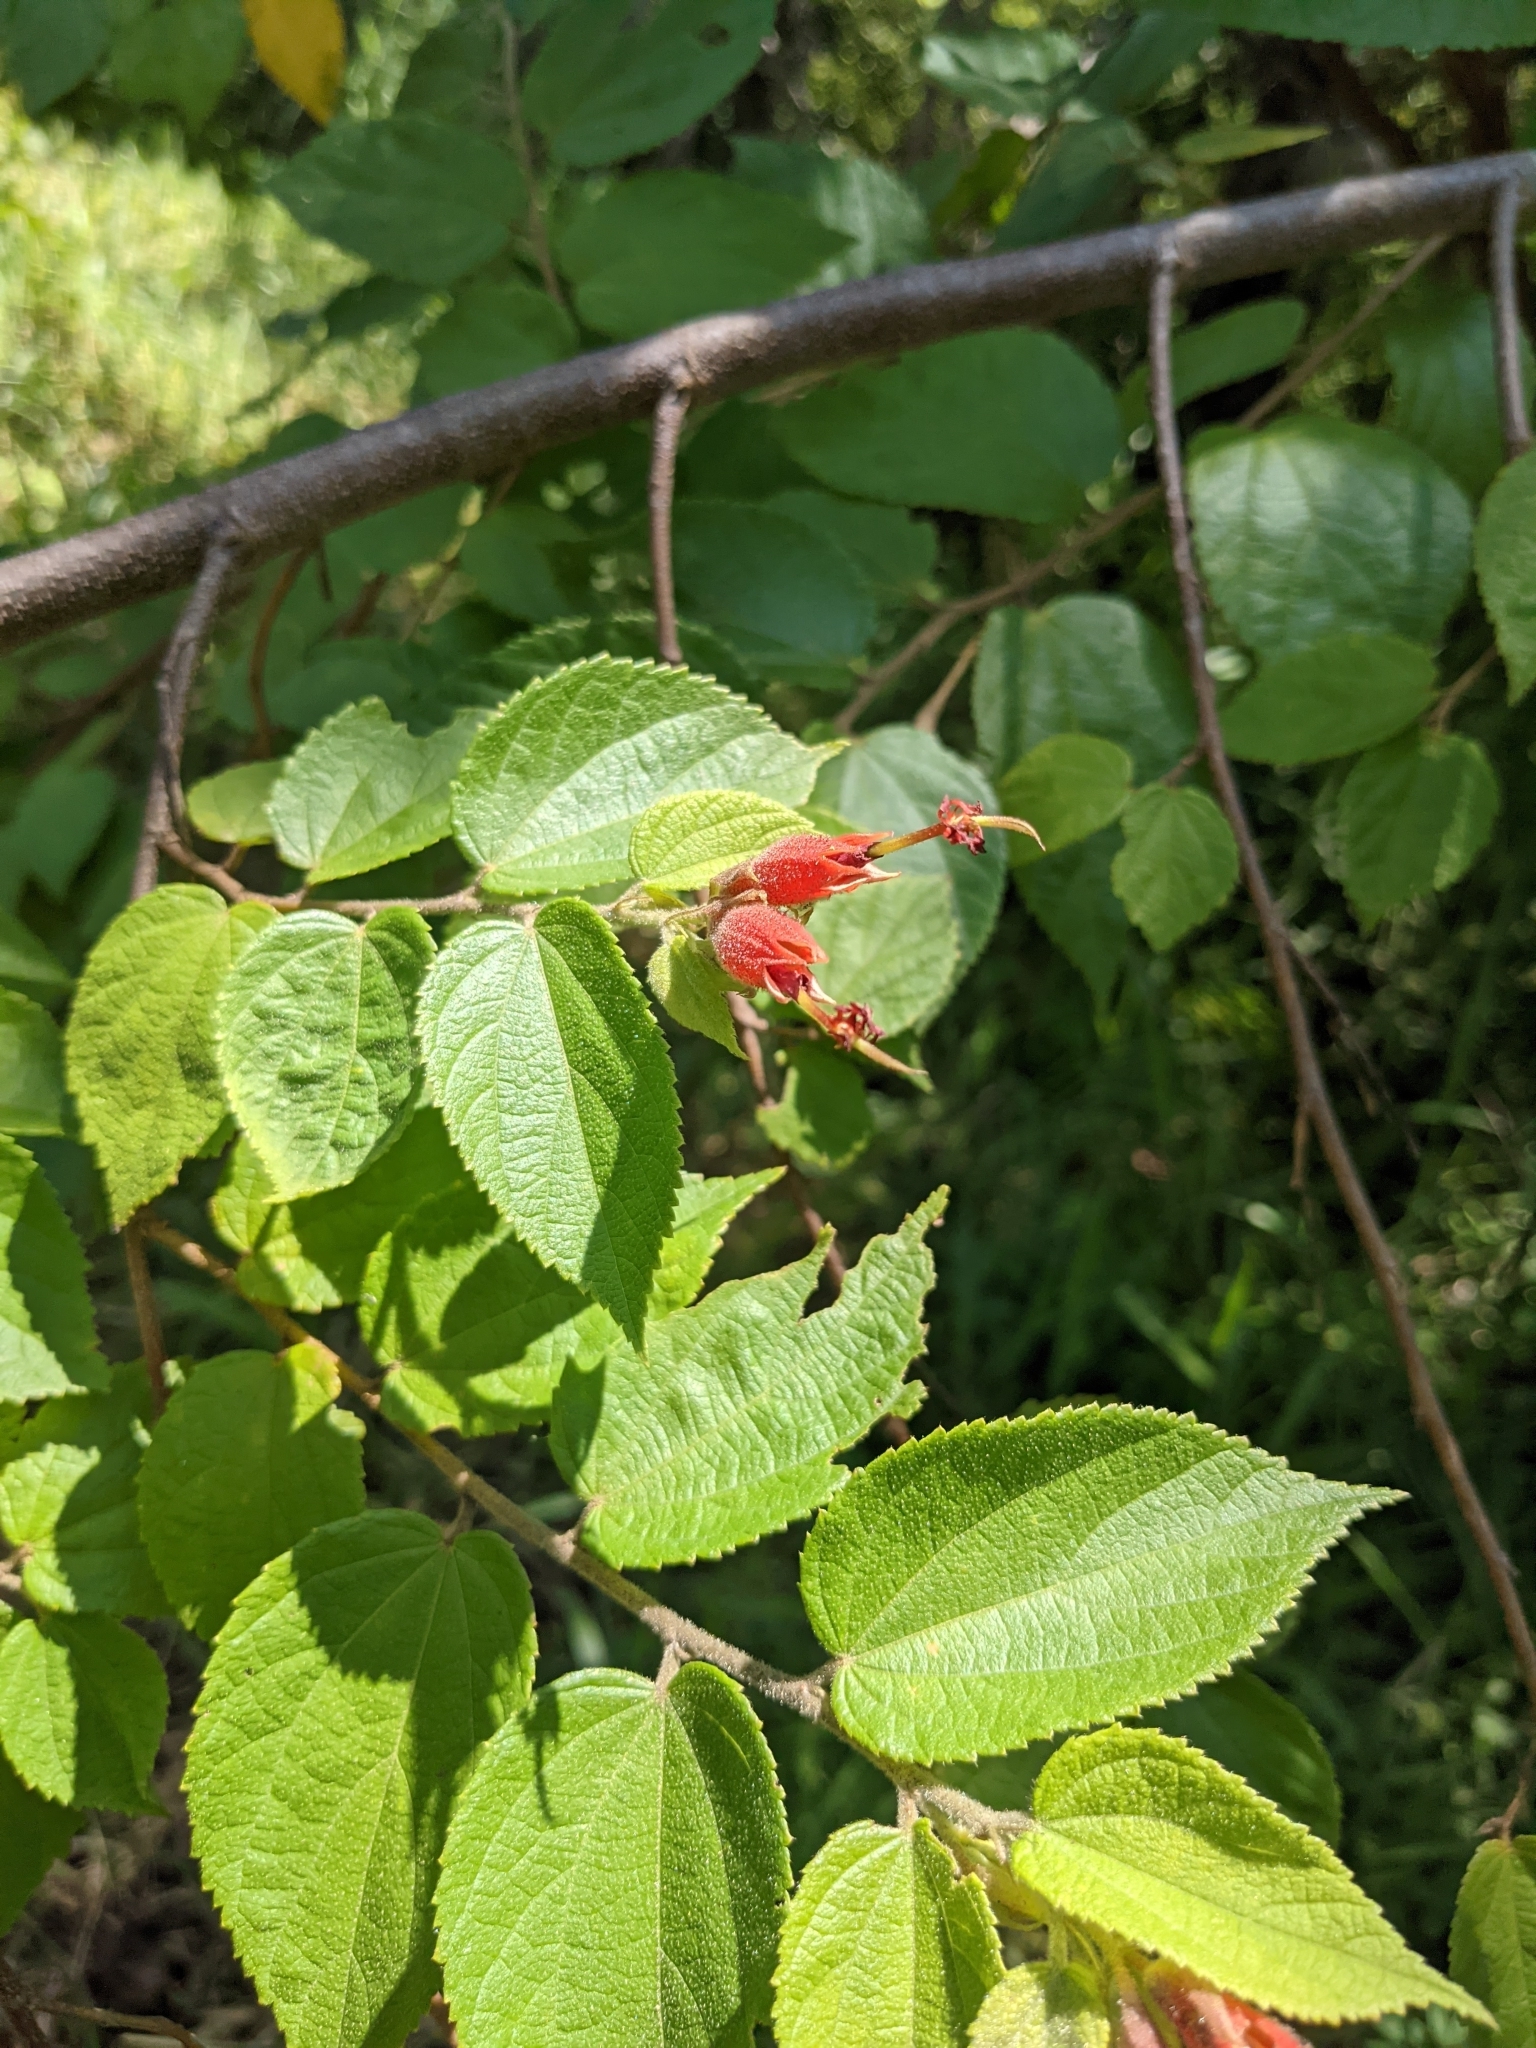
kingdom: Plantae
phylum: Tracheophyta
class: Magnoliopsida
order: Malvales
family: Malvaceae
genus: Helicteres
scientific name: Helicteres guazumifolia
